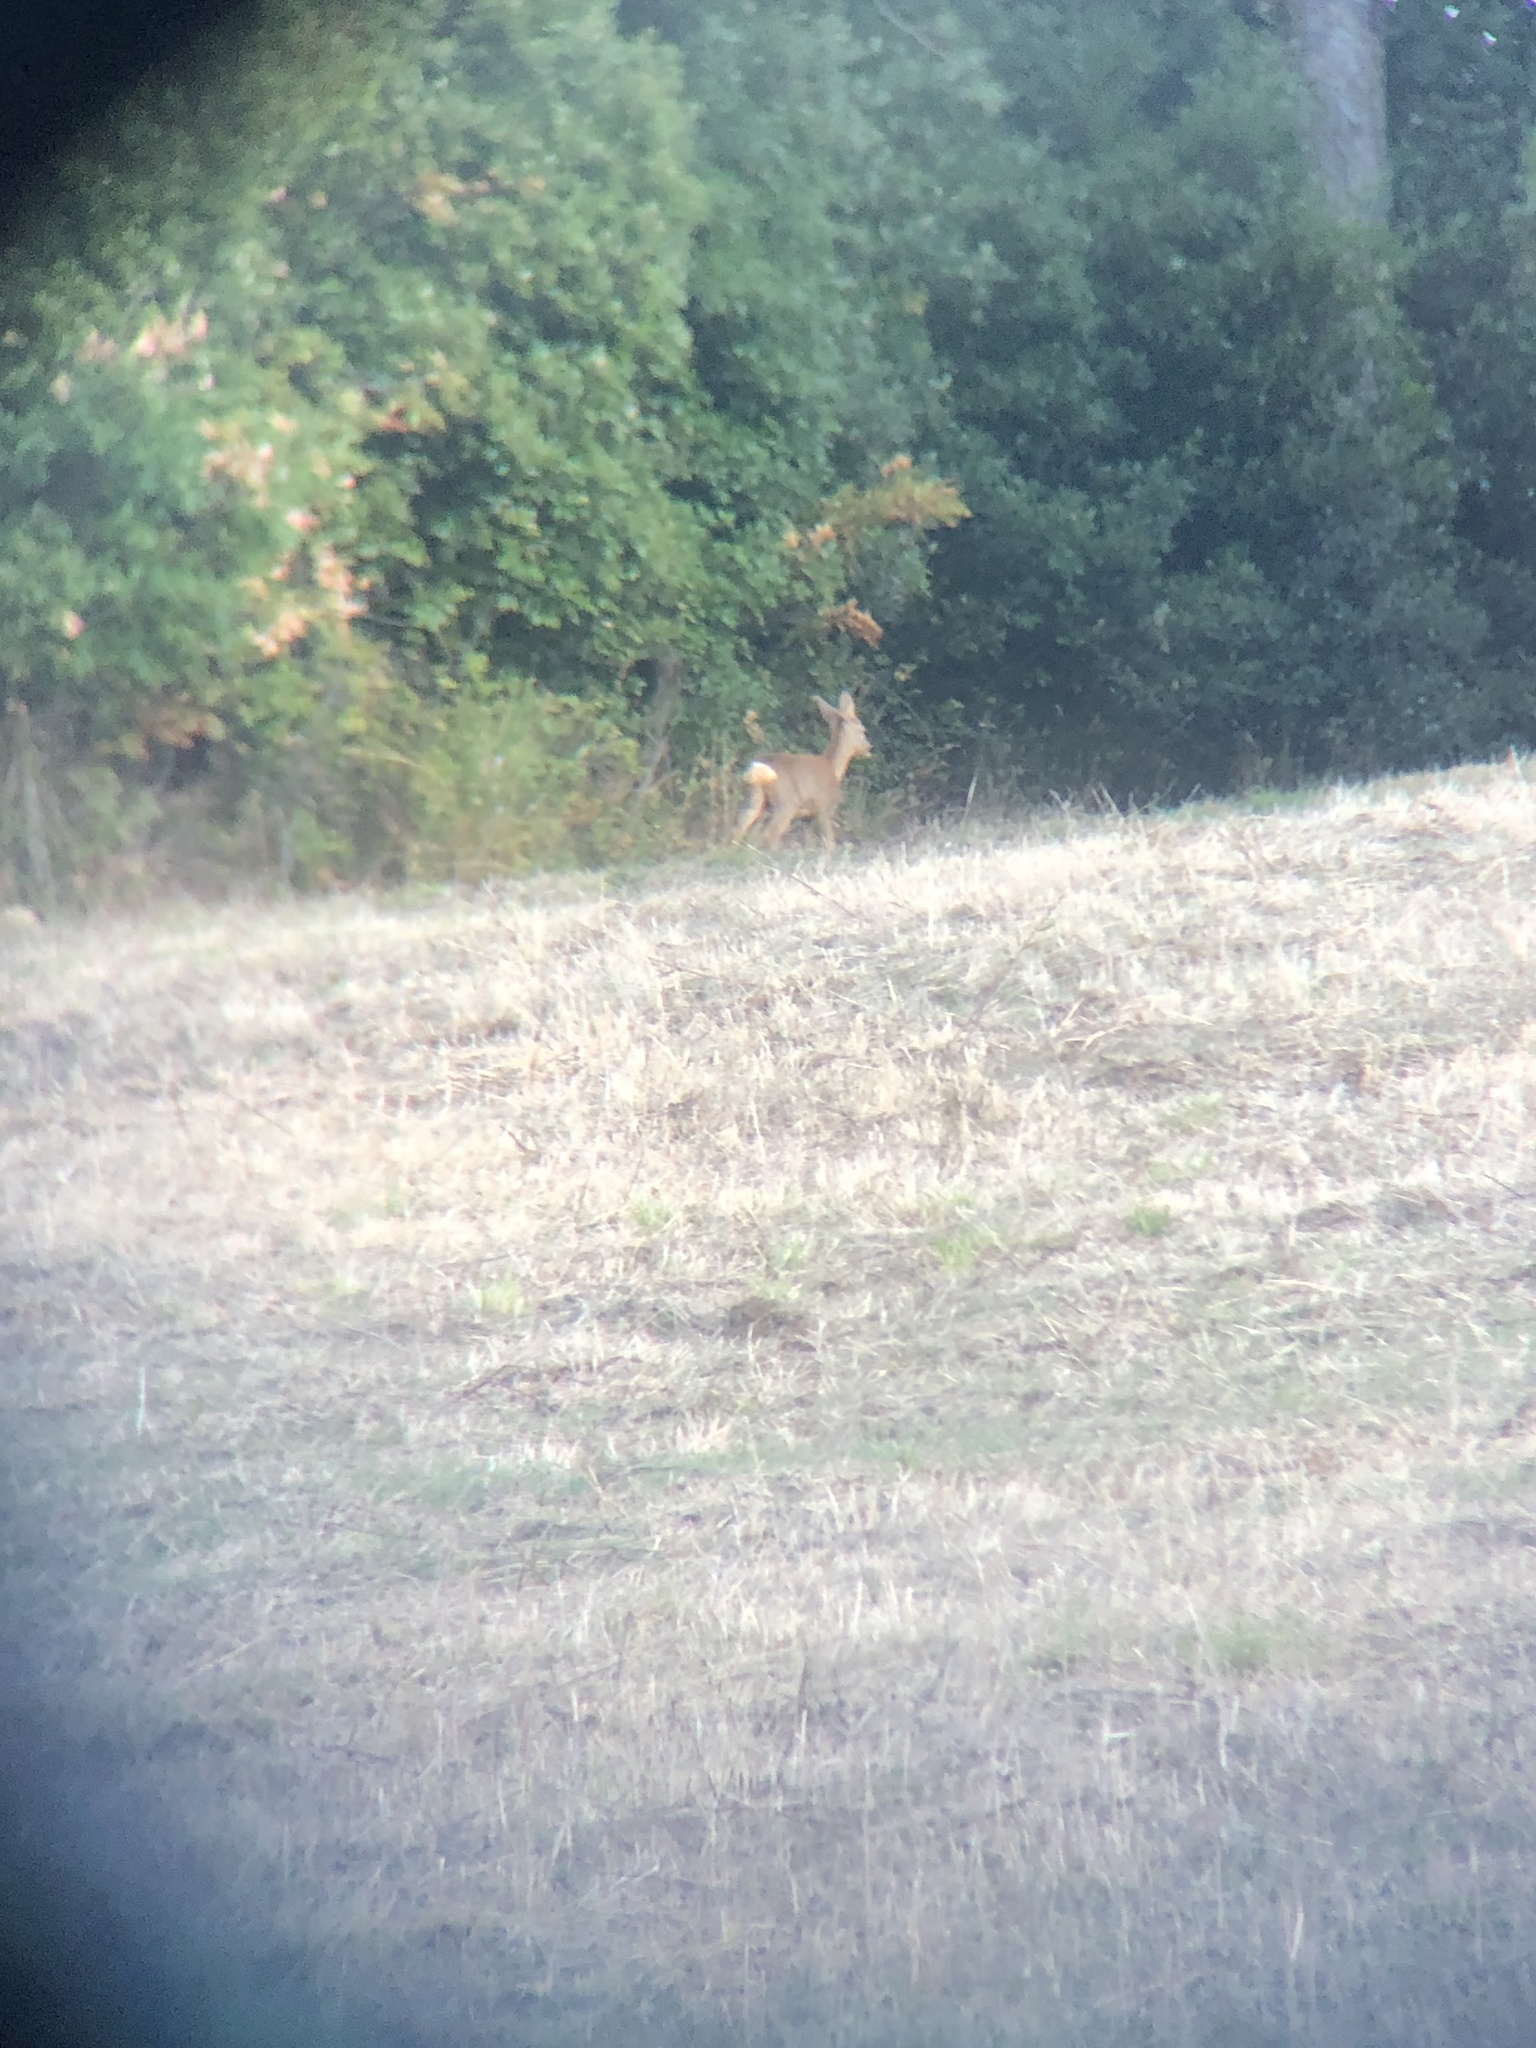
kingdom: Animalia
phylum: Chordata
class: Mammalia
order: Artiodactyla
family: Cervidae
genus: Capreolus
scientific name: Capreolus capreolus
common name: Western roe deer
